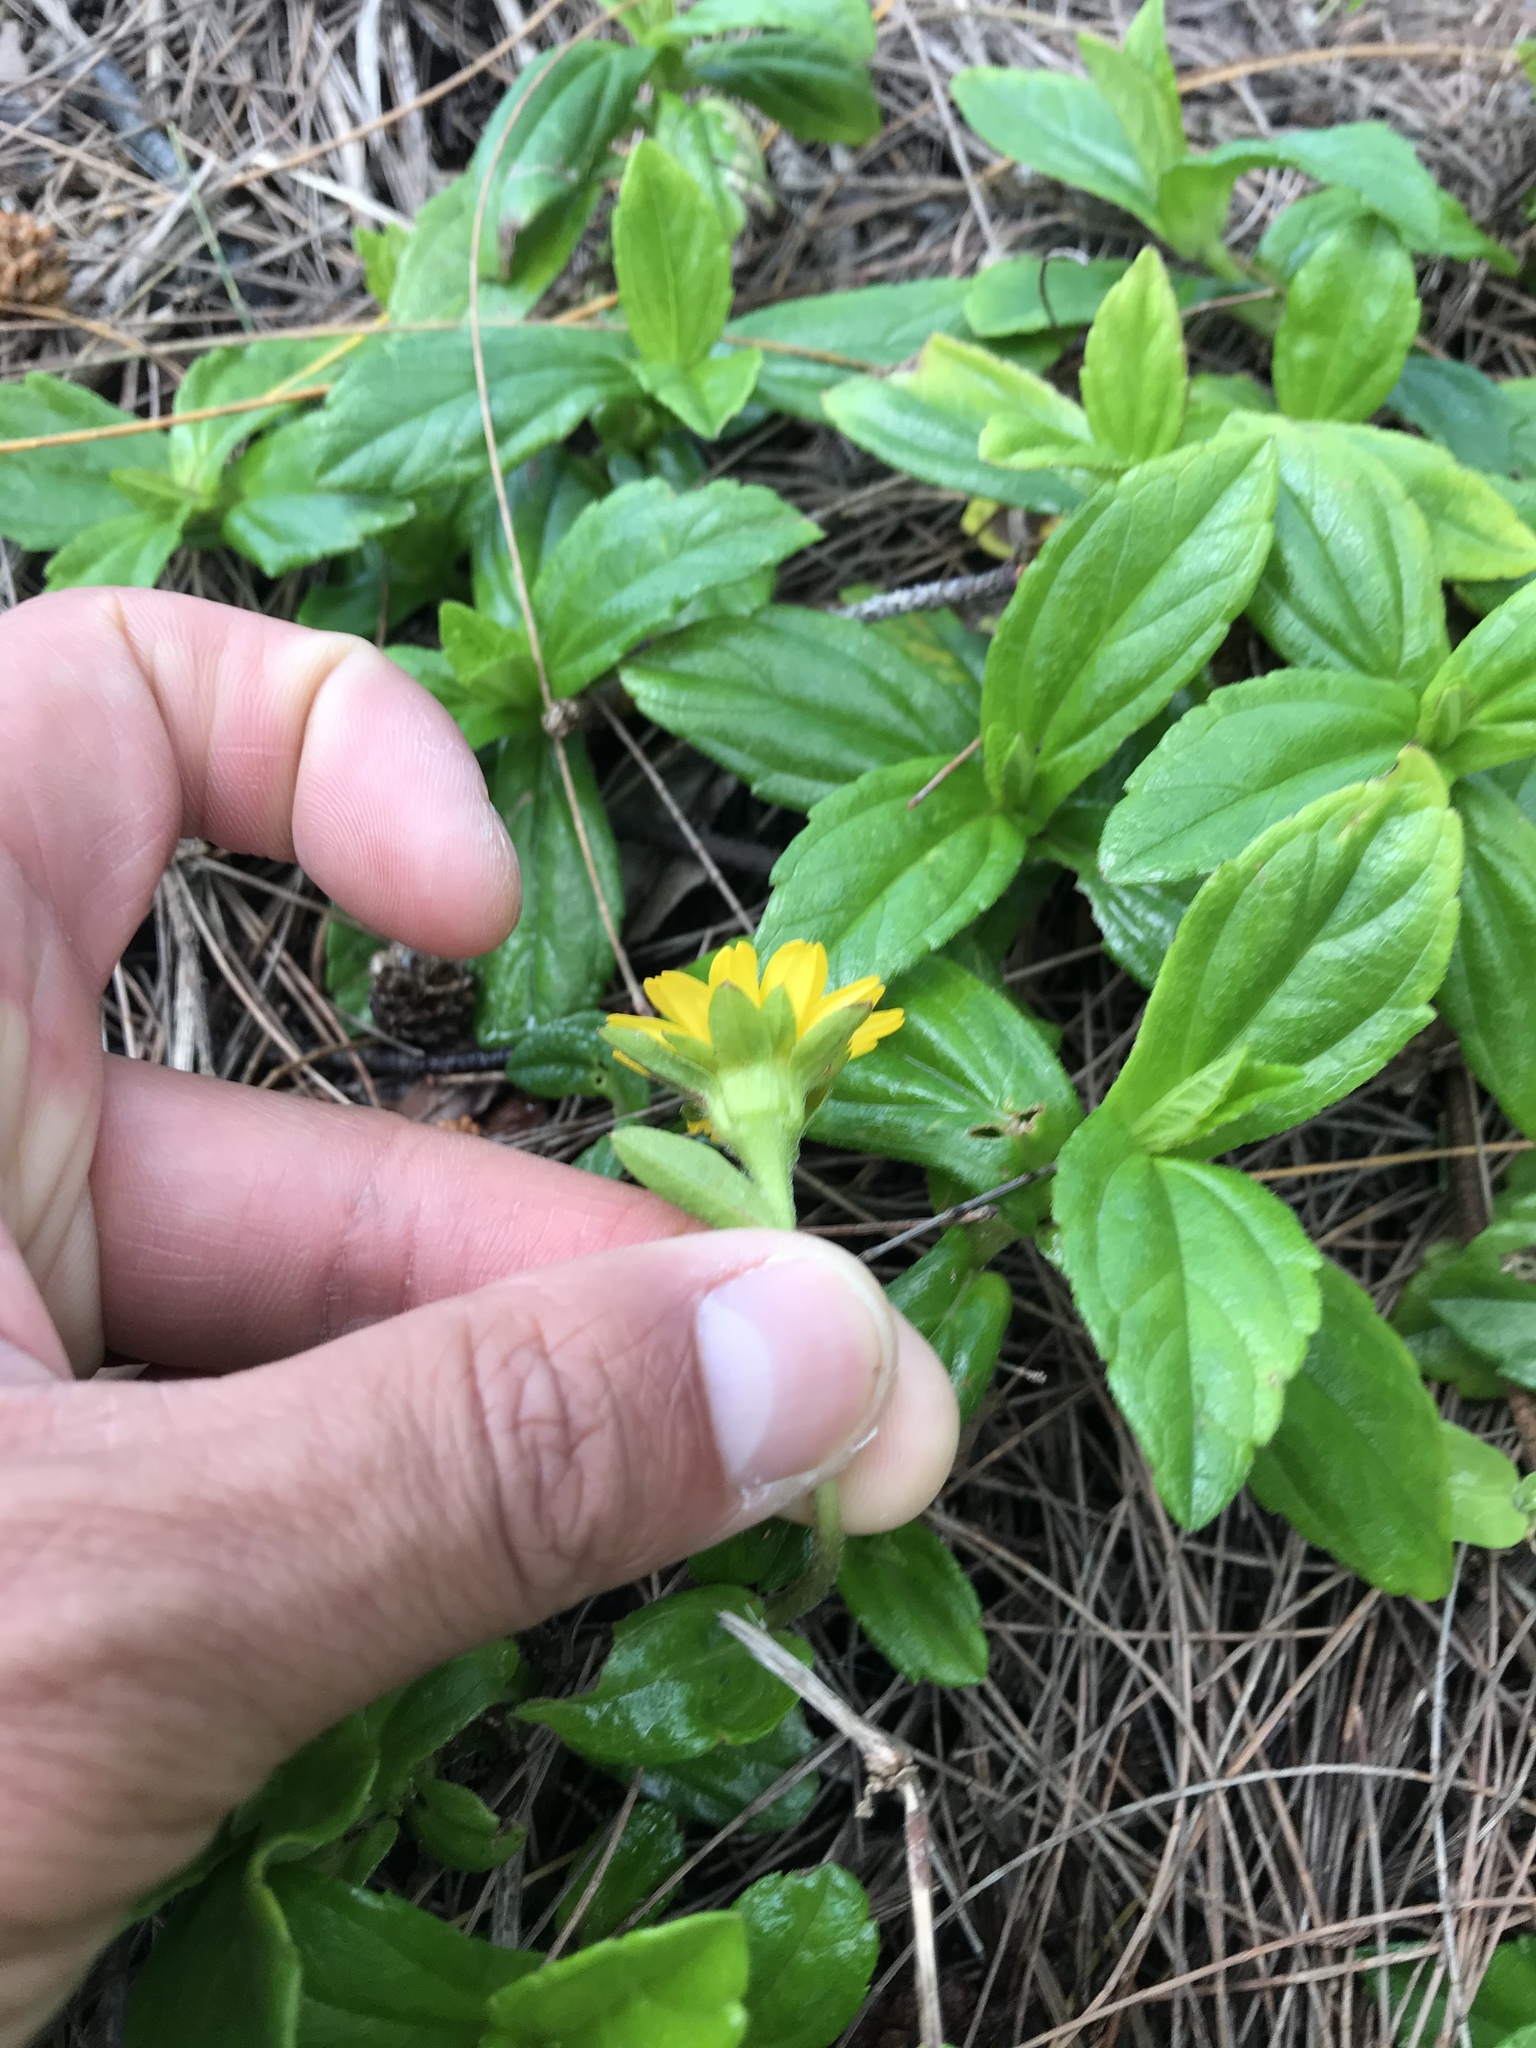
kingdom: Plantae
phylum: Tracheophyta
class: Magnoliopsida
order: Asterales
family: Asteraceae
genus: Sphagneticola
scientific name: Sphagneticola trilobata
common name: Bay biscayne creeping-oxeye
